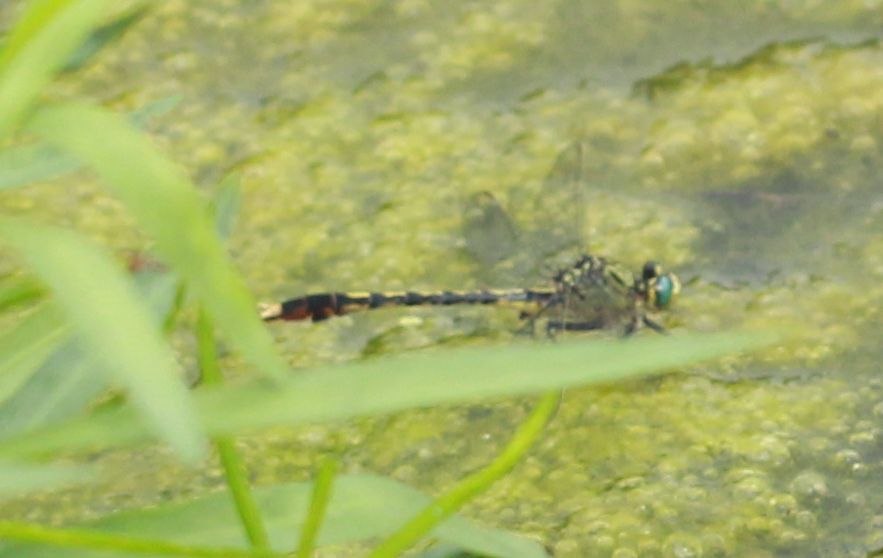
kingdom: Animalia
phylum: Arthropoda
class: Insecta
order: Odonata
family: Gomphidae
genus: Arigomphus
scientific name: Arigomphus villosipes
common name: Unicorn clubtail
